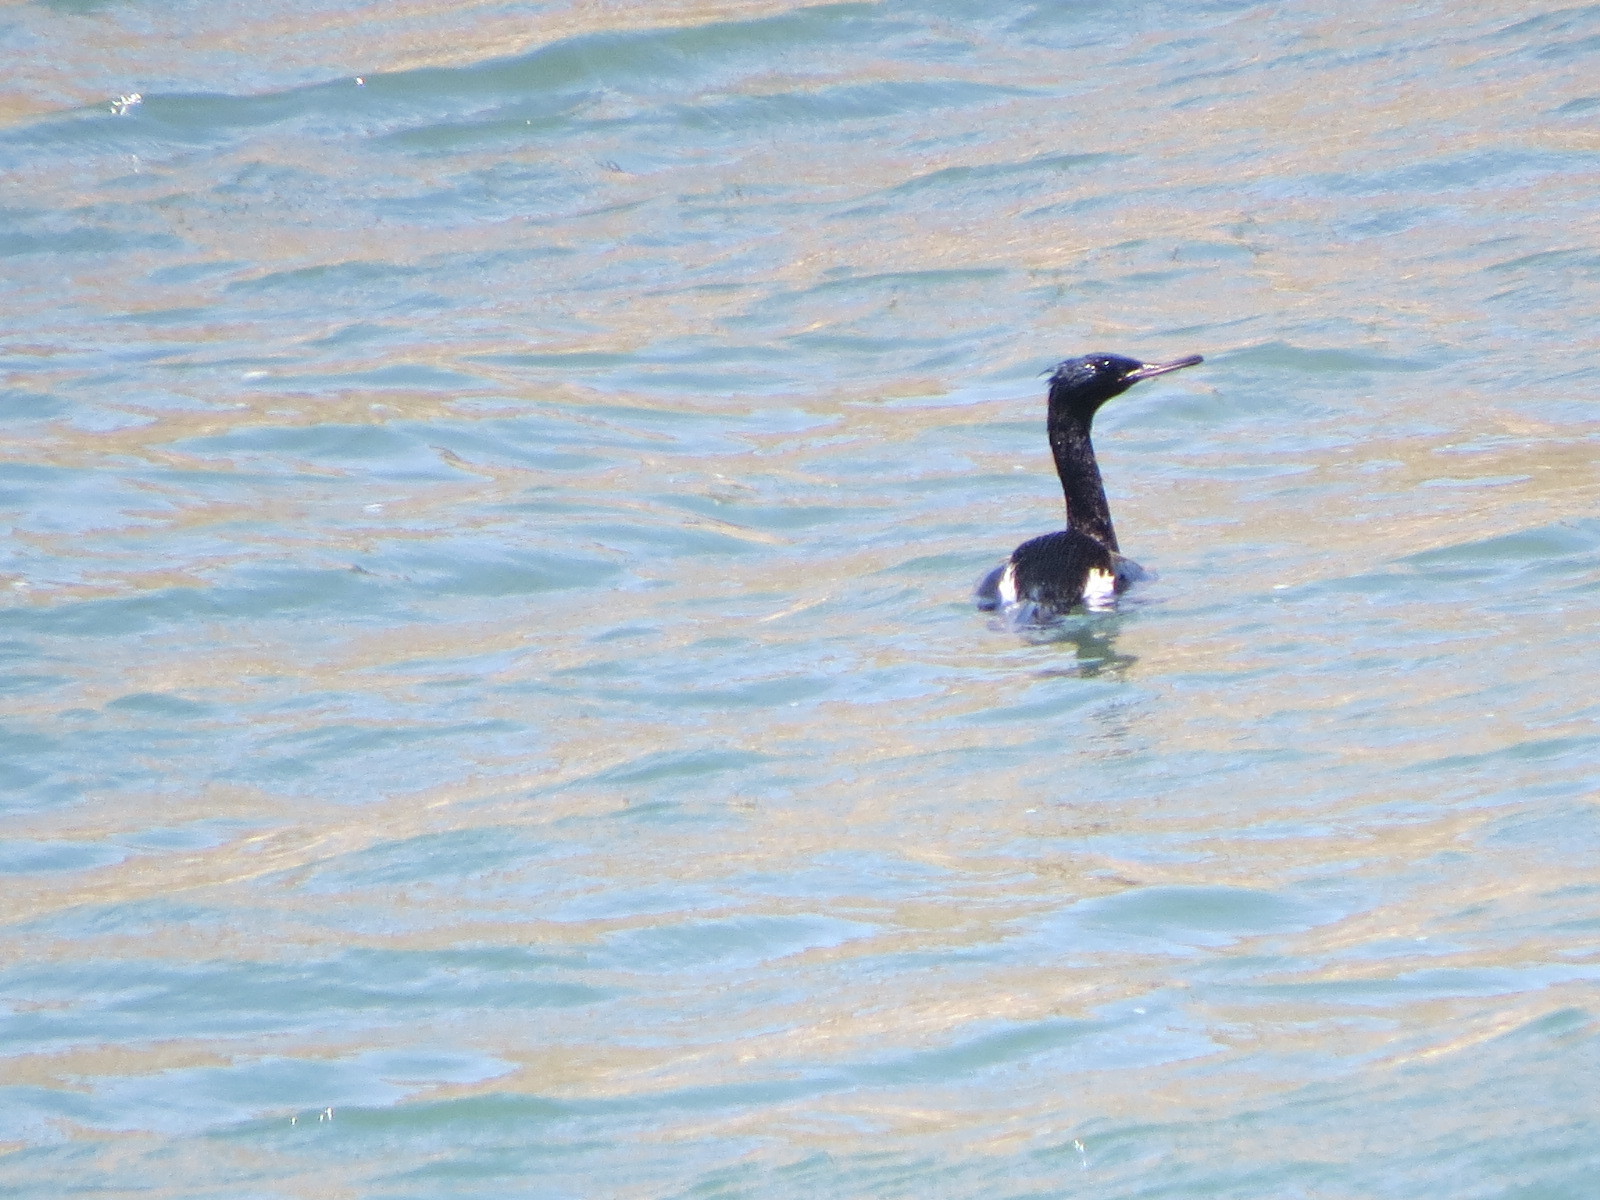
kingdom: Animalia
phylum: Chordata
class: Aves
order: Suliformes
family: Phalacrocoracidae
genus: Phalacrocorax
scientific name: Phalacrocorax pelagicus
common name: Pelagic cormorant
